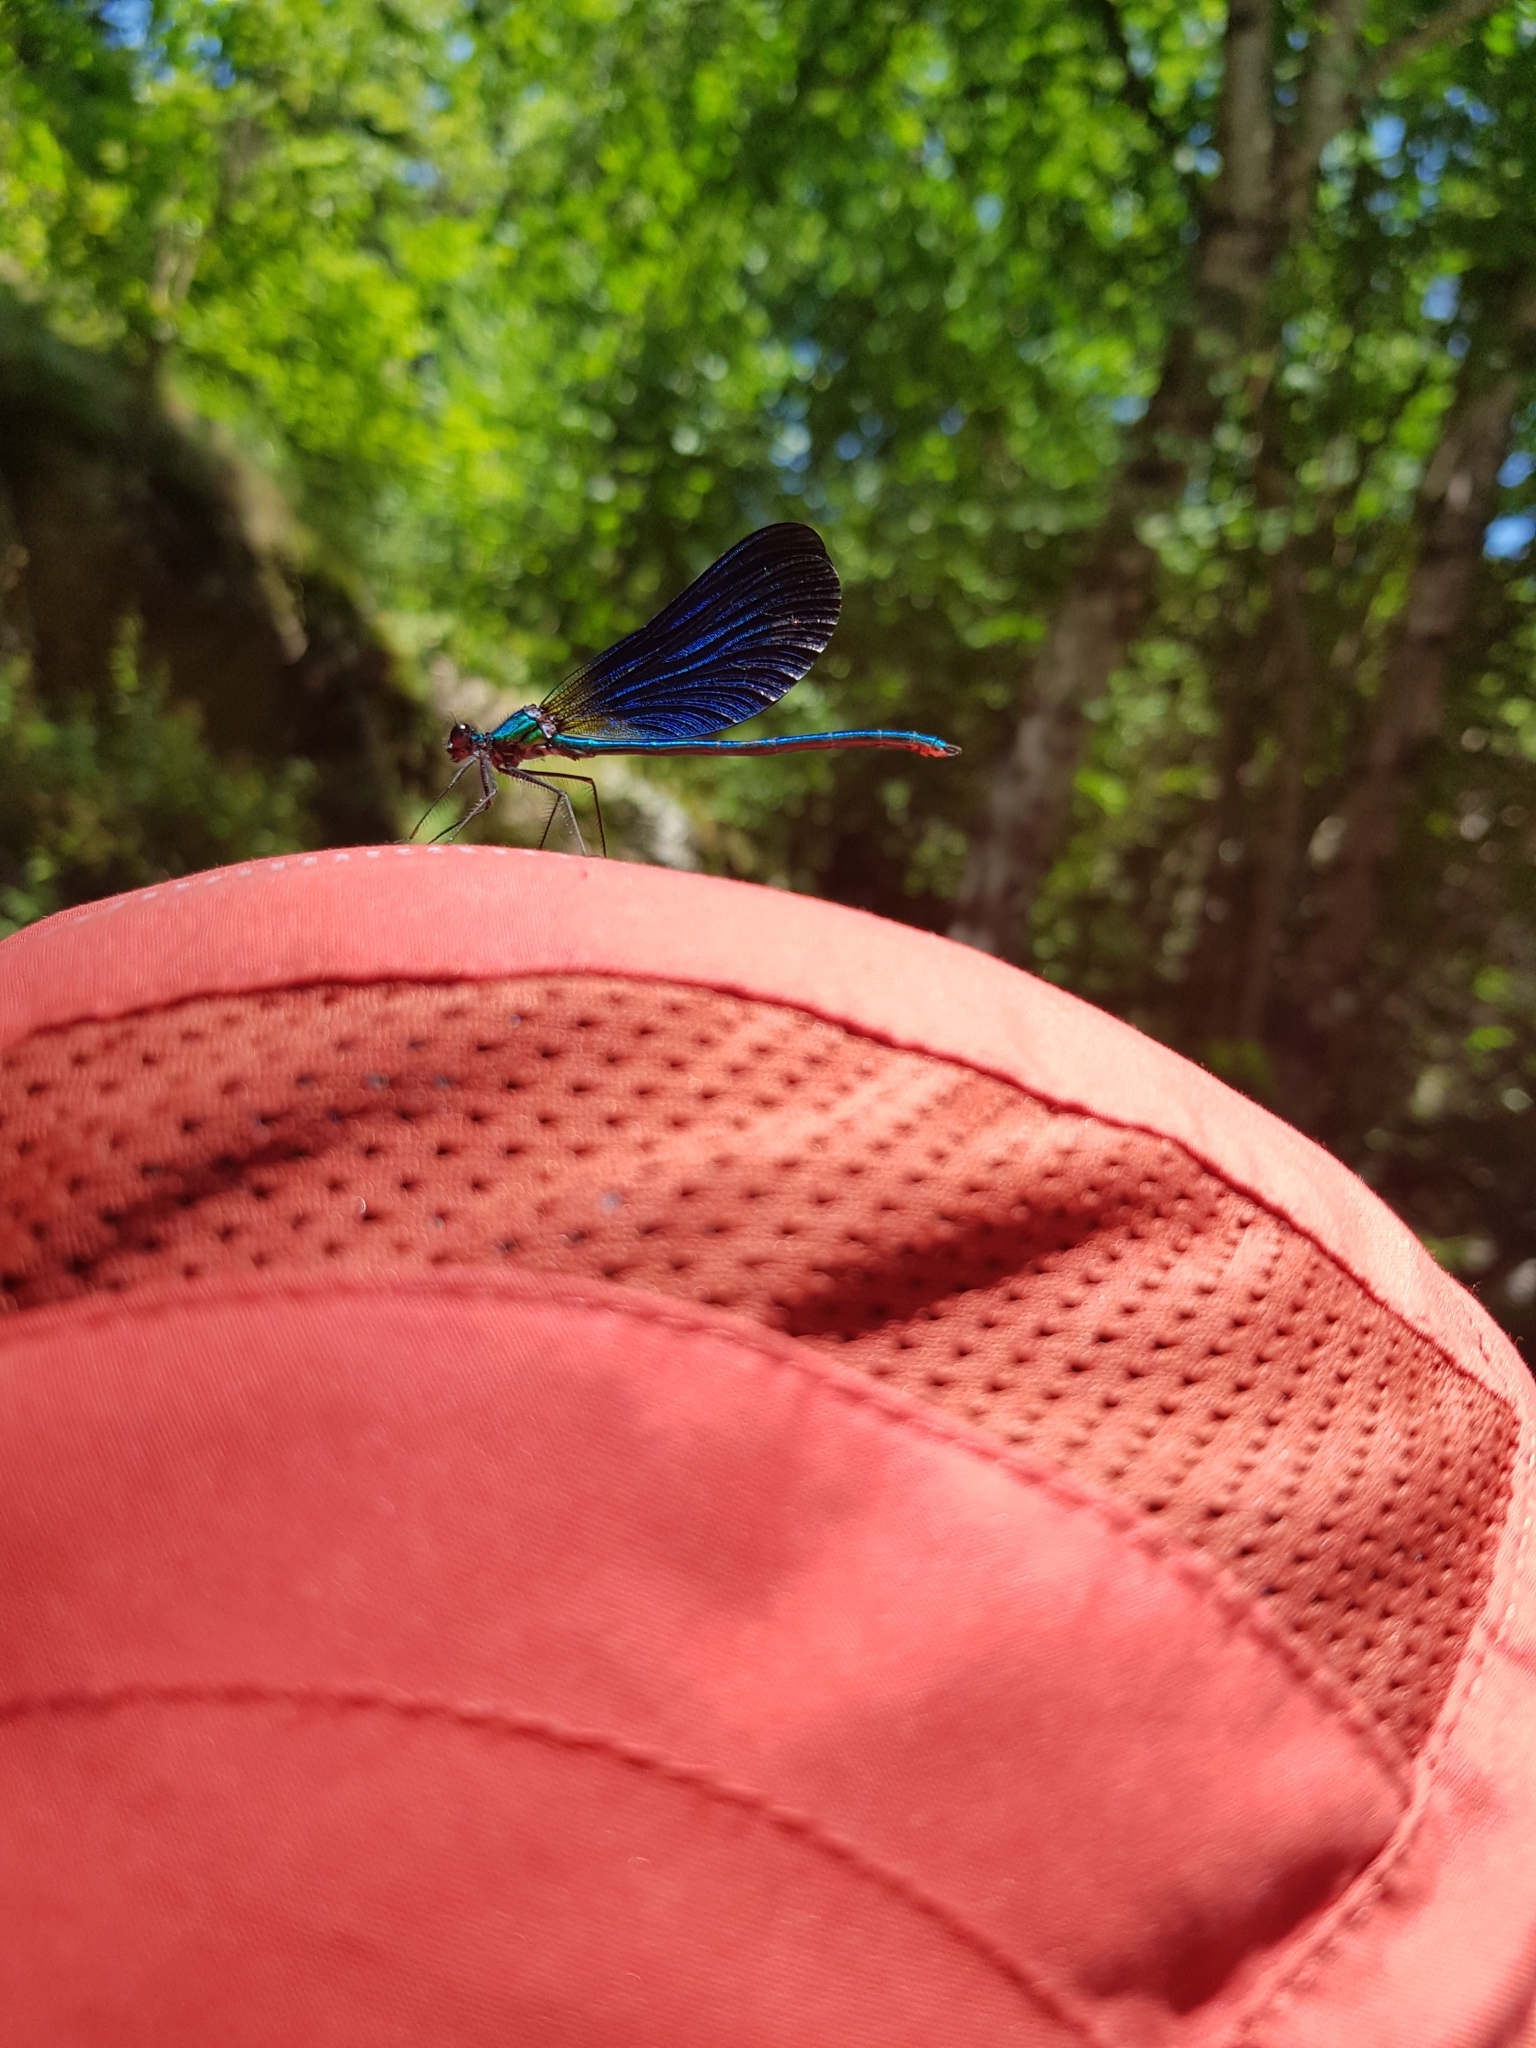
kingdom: Animalia
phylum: Arthropoda
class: Insecta
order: Odonata
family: Calopterygidae
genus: Calopteryx
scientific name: Calopteryx virgo
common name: Beautiful demoiselle
